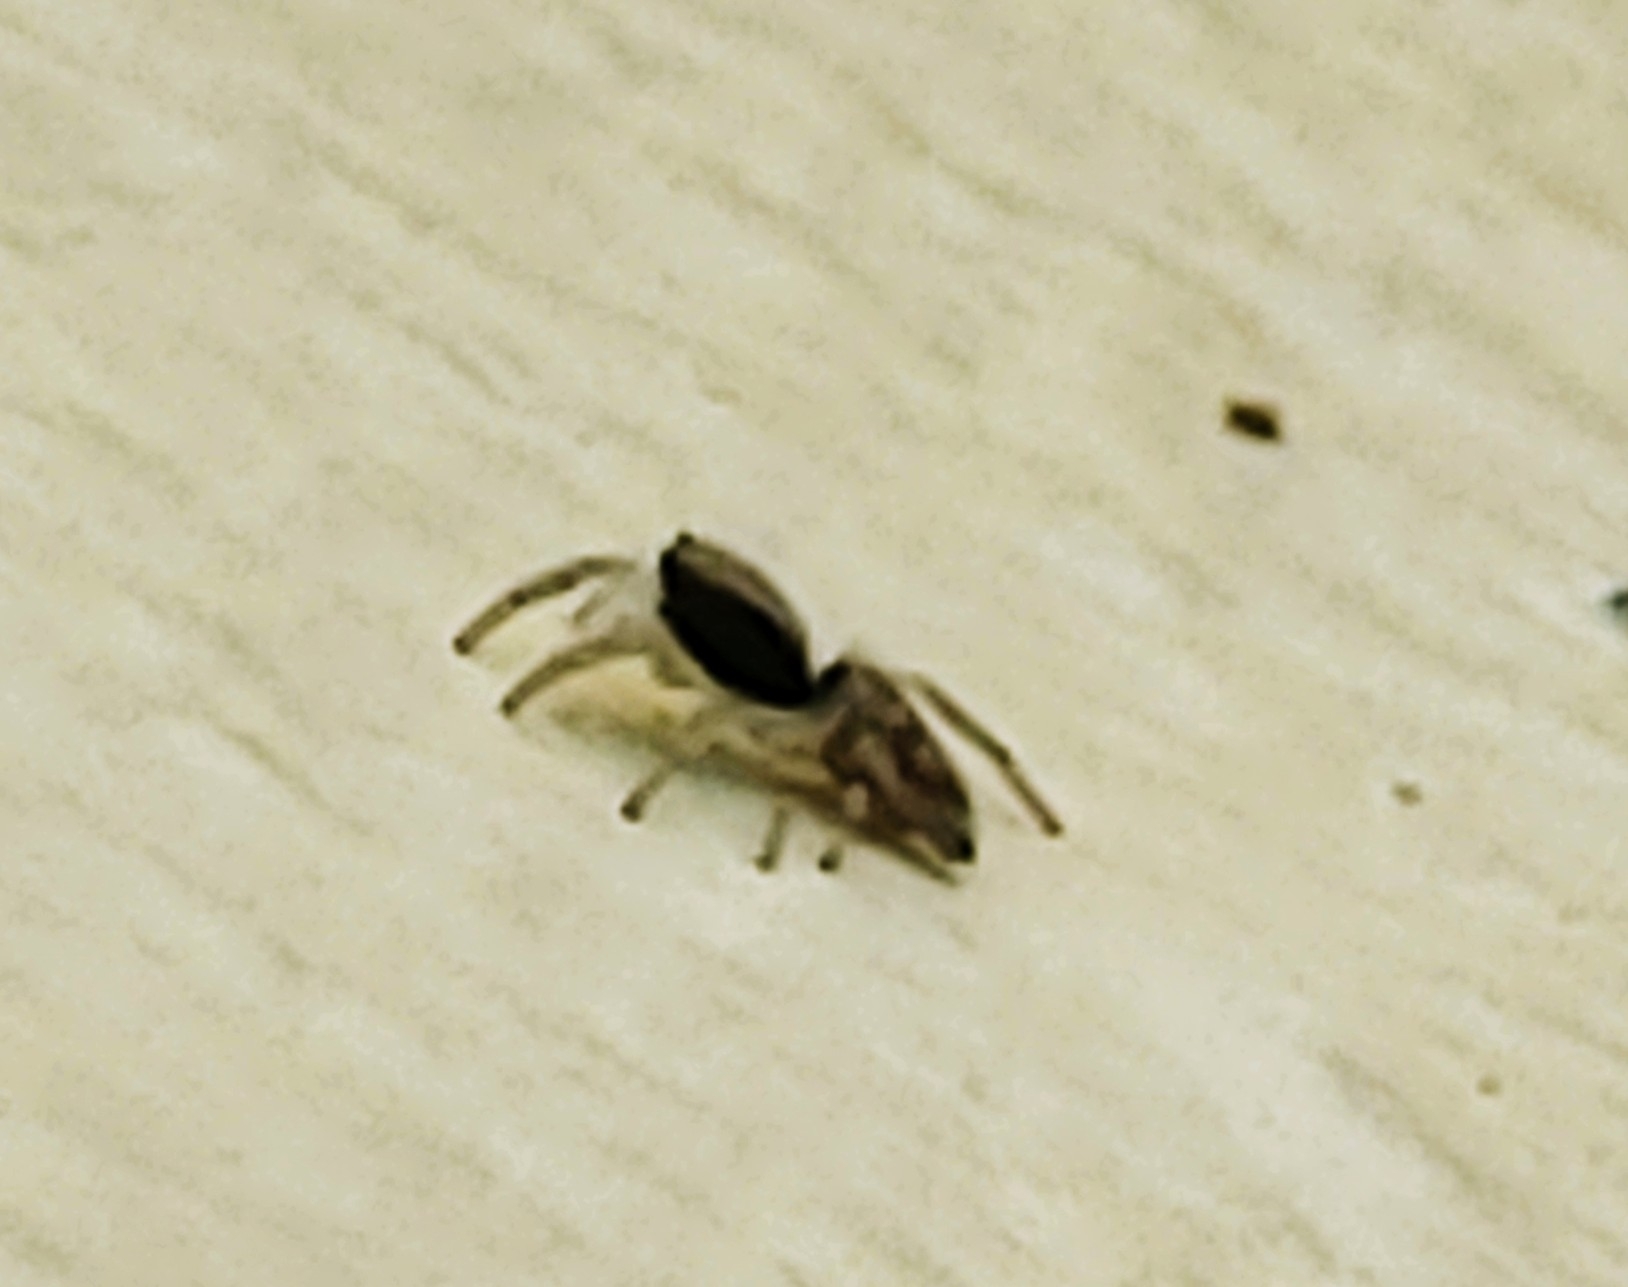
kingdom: Animalia
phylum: Arthropoda
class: Arachnida
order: Araneae
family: Salticidae
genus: Menemerus
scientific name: Menemerus bivittatus
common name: Gray wall jumper
